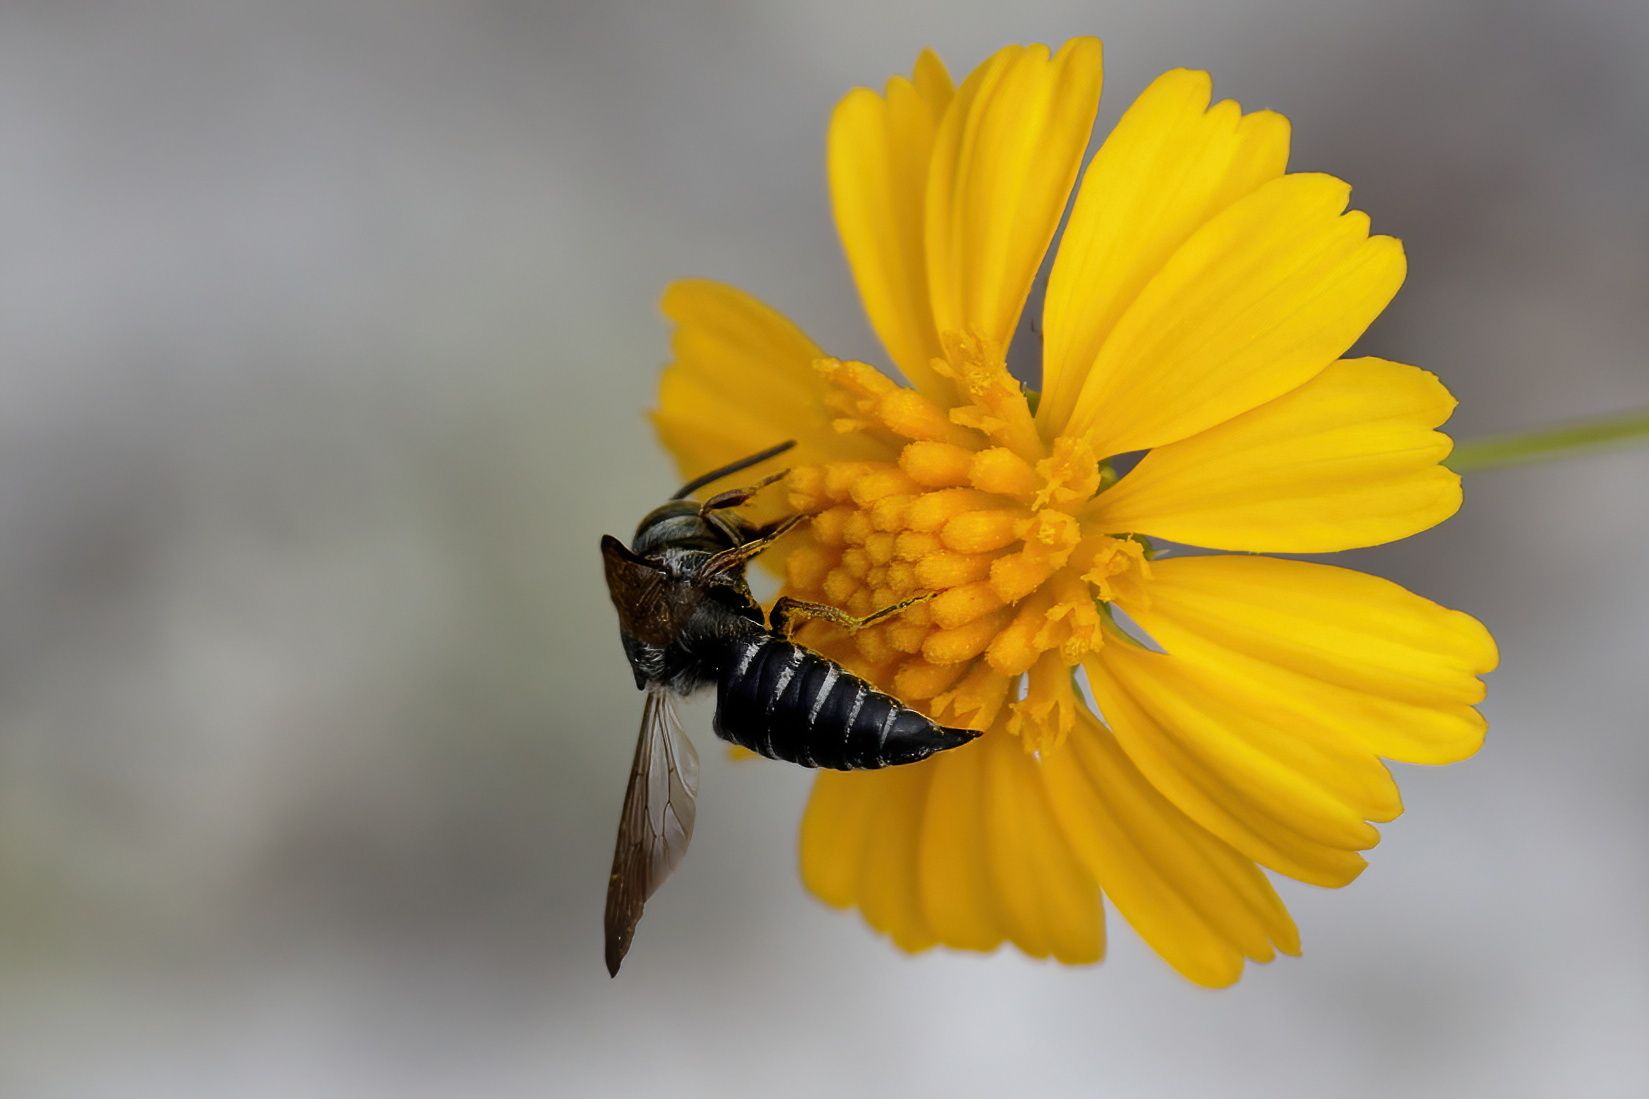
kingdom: Animalia
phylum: Arthropoda
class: Insecta
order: Hymenoptera
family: Megachilidae
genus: Coelioxys
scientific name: Coelioxys dolichos
